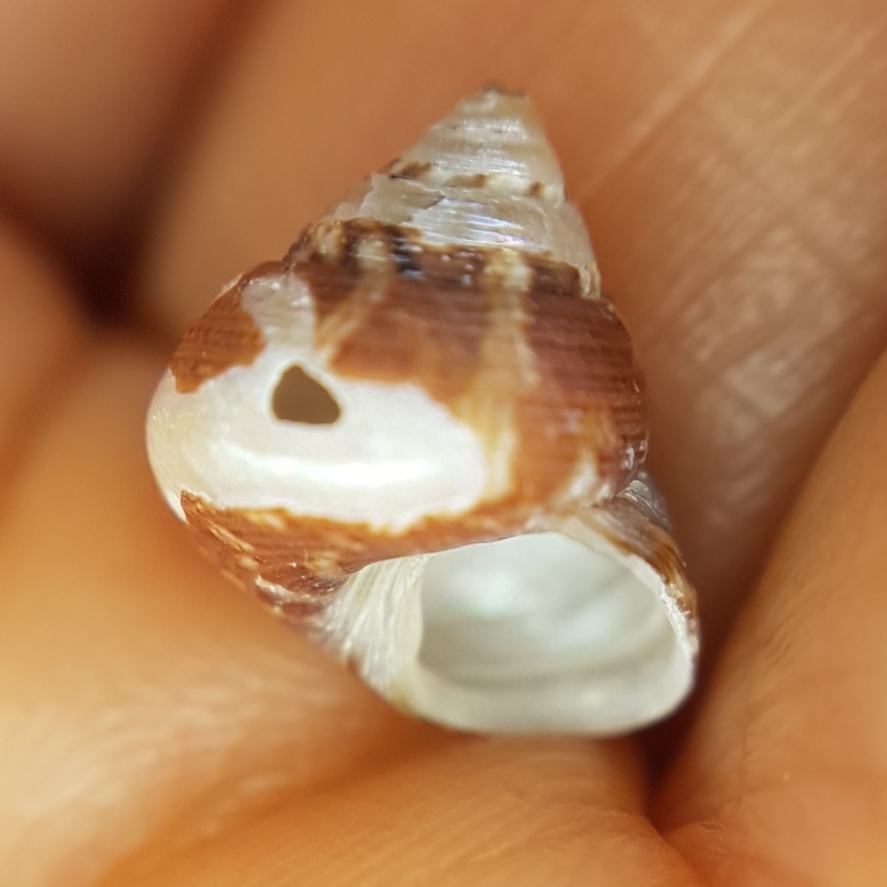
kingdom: Animalia
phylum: Mollusca
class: Gastropoda
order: Trochida
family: Trochidae
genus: Steromphala
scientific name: Steromphala adansonii
